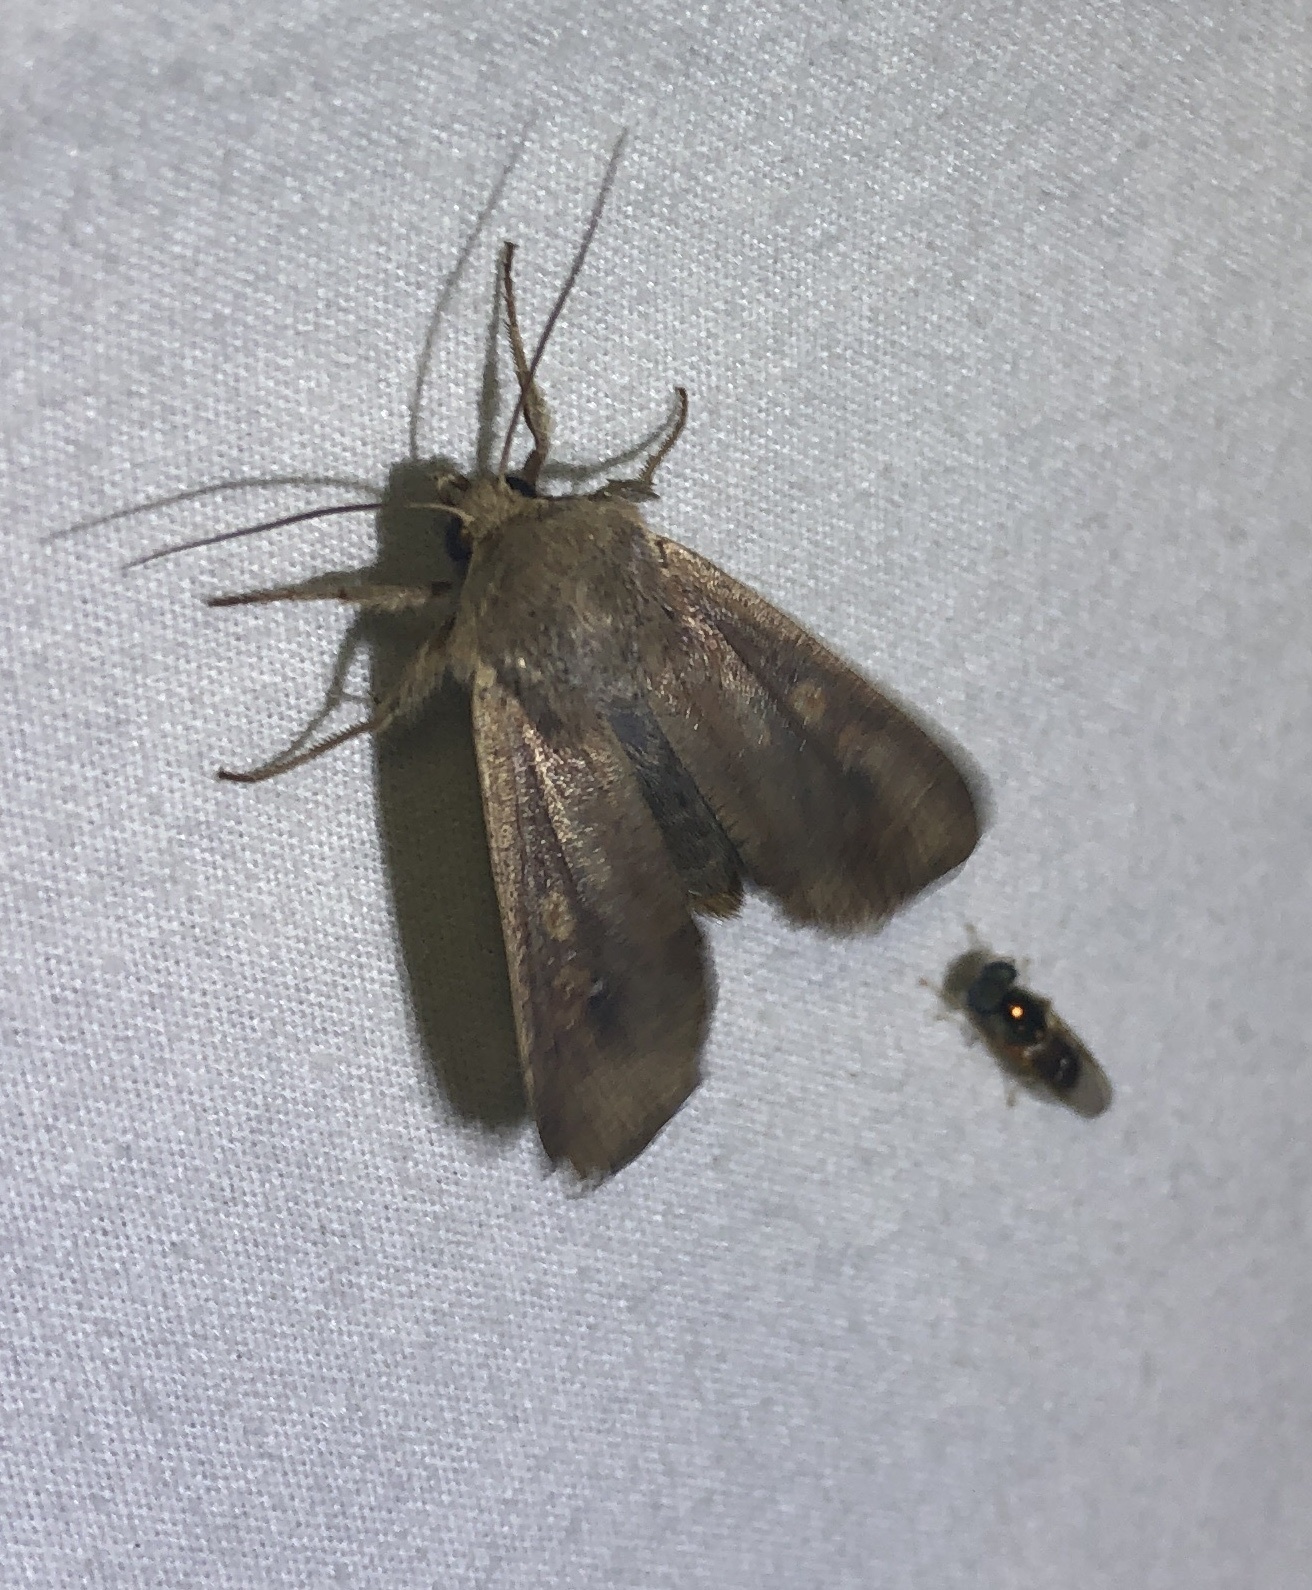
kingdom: Animalia
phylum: Arthropoda
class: Insecta
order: Lepidoptera
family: Noctuidae
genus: Mythimna
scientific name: Mythimna unipuncta
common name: White-speck
